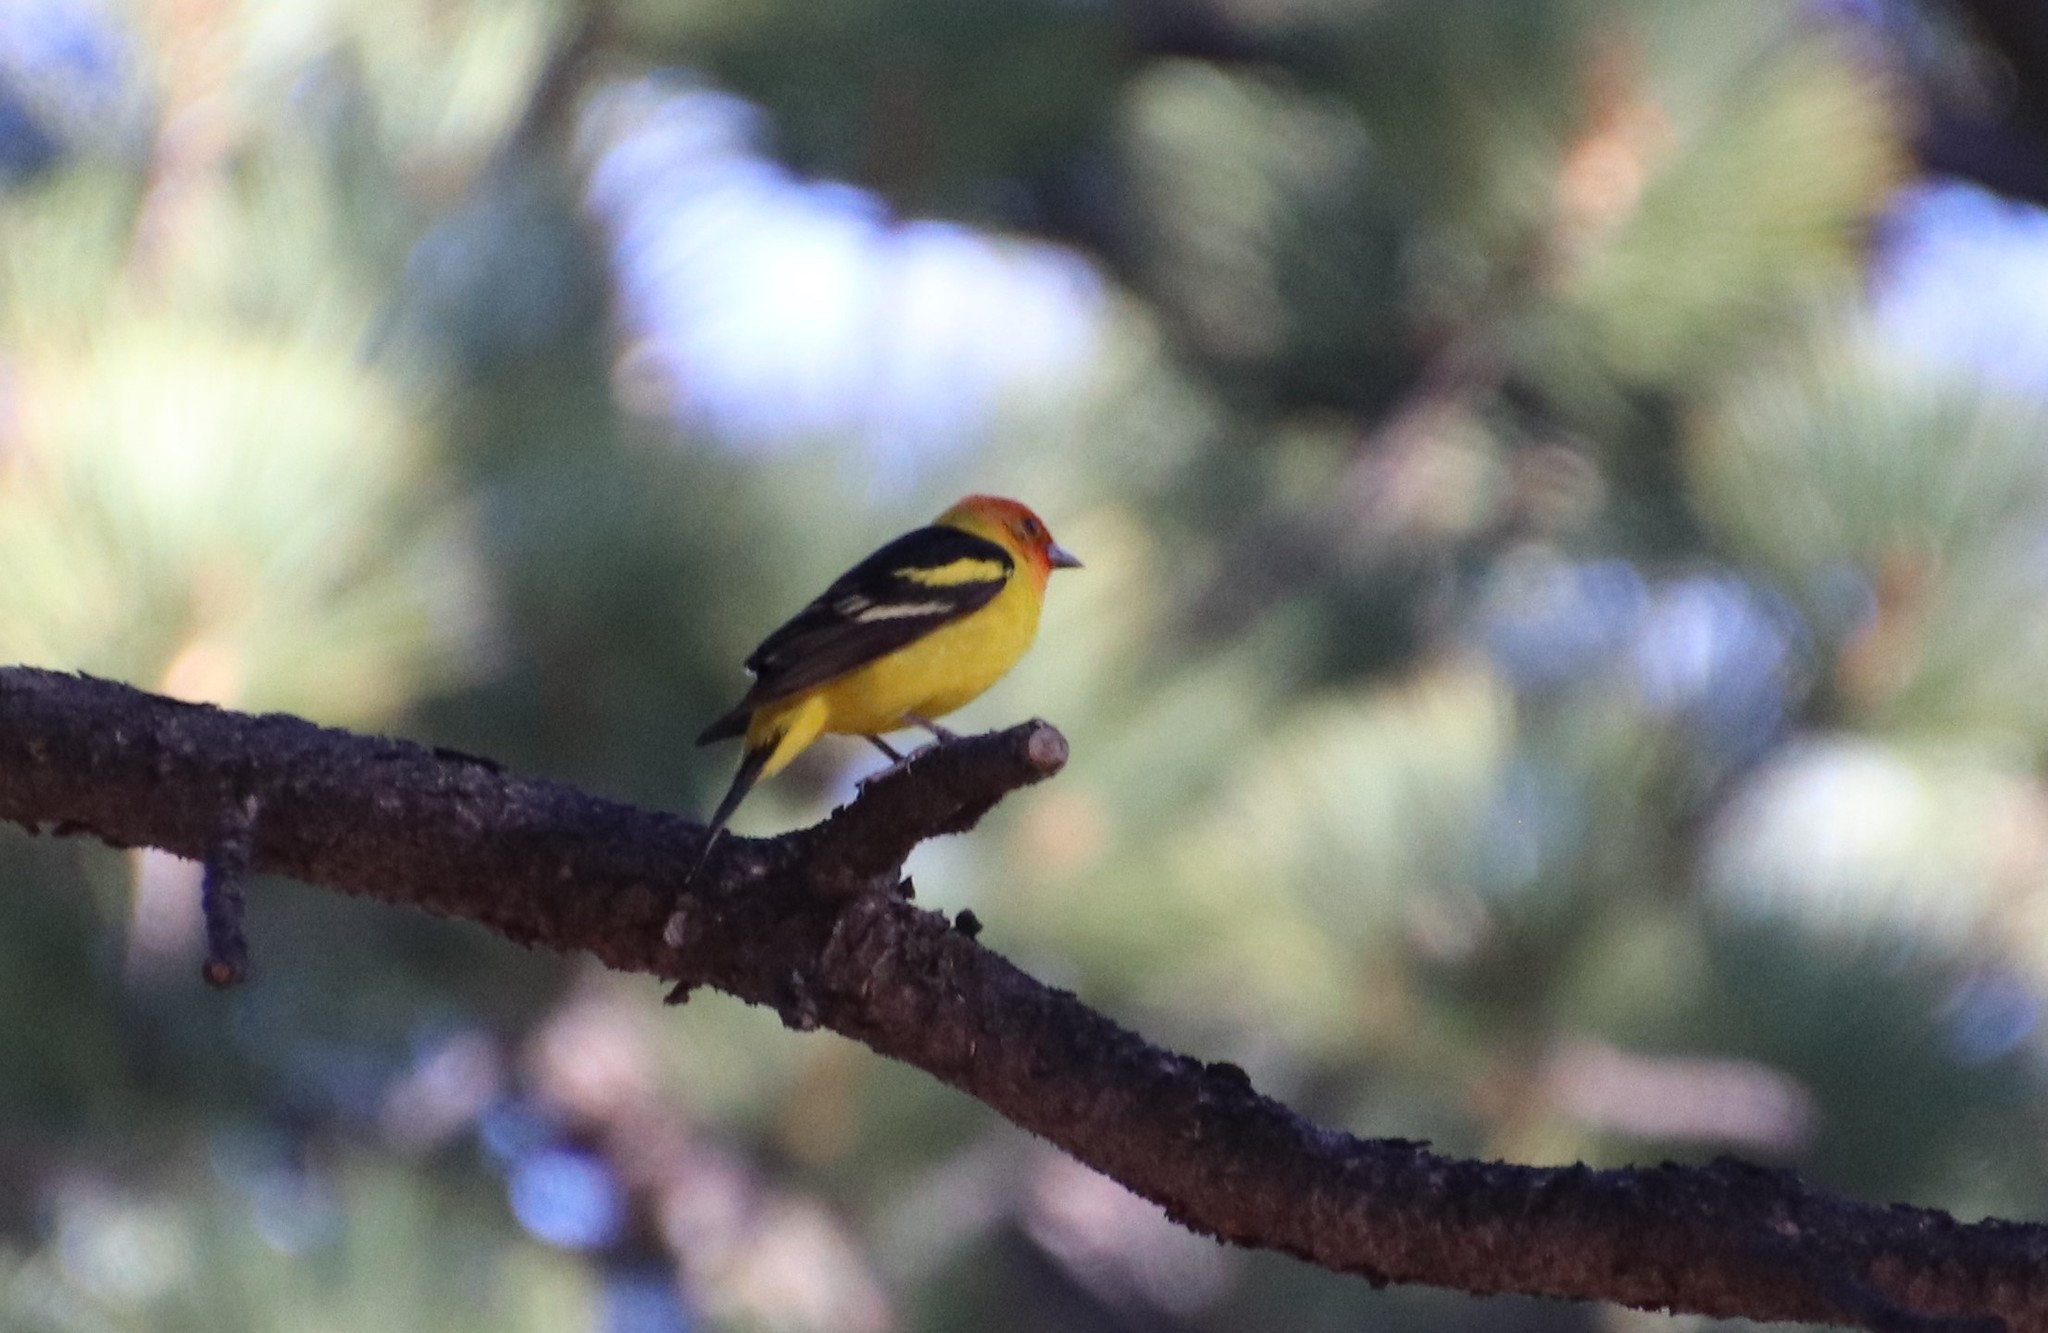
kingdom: Animalia
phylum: Chordata
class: Aves
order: Passeriformes
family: Cardinalidae
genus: Piranga
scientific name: Piranga ludoviciana
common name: Western tanager
